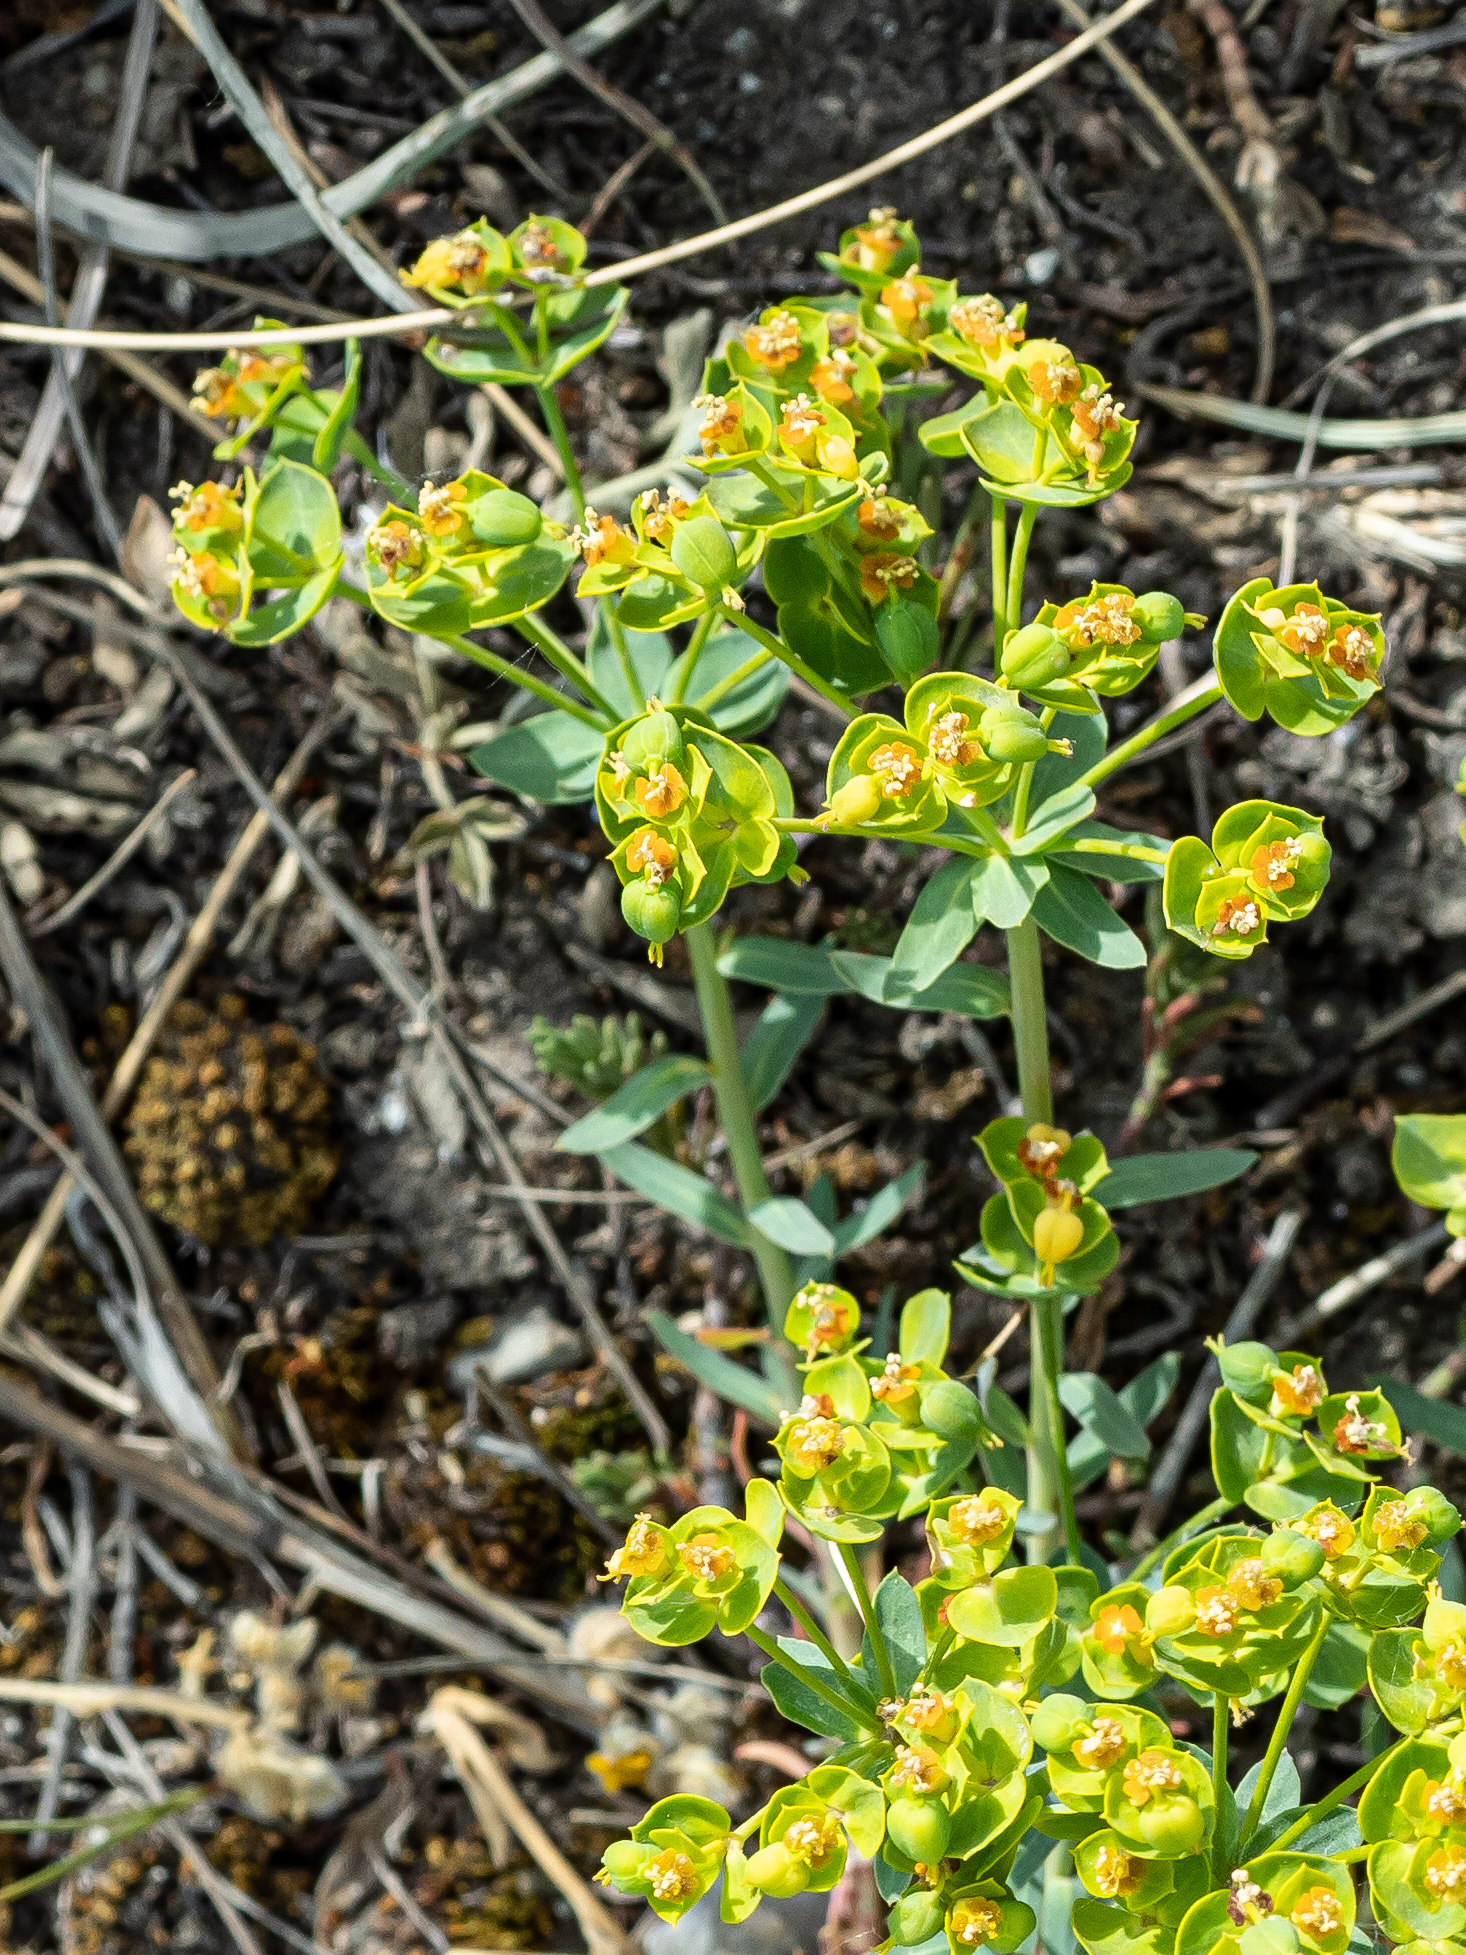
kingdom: Plantae
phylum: Tracheophyta
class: Magnoliopsida
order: Malpighiales
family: Euphorbiaceae
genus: Euphorbia
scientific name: Euphorbia seguieriana
